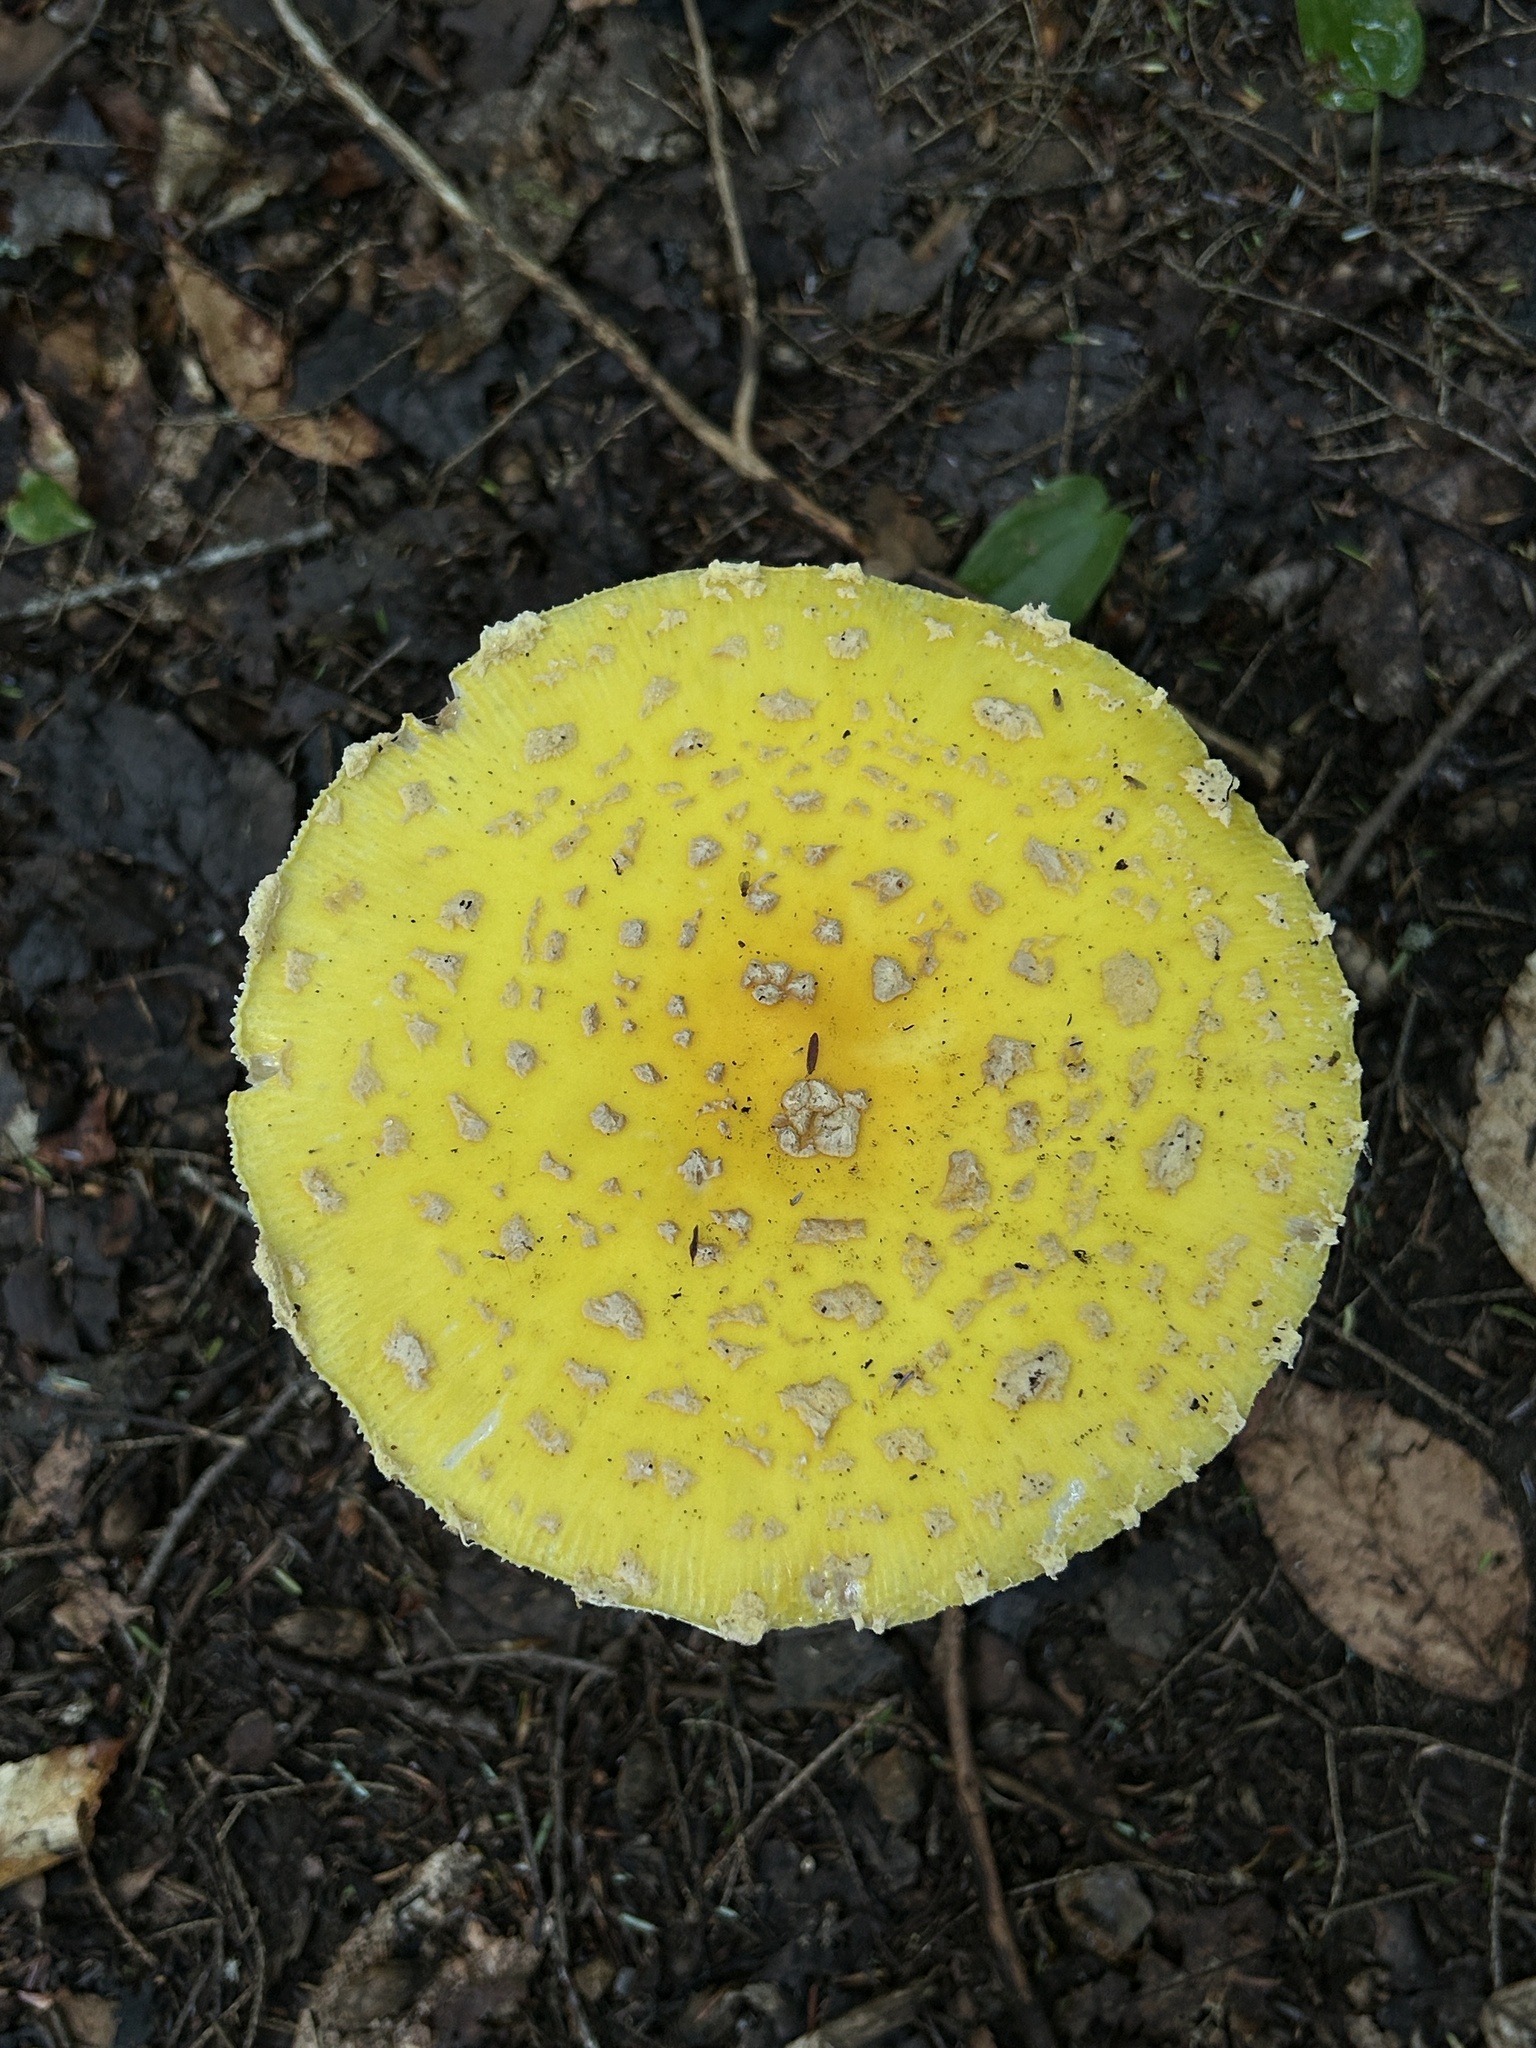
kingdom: Fungi
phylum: Basidiomycota
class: Agaricomycetes
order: Agaricales
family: Amanitaceae
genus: Amanita
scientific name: Amanita muscaria
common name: Fly agaric
